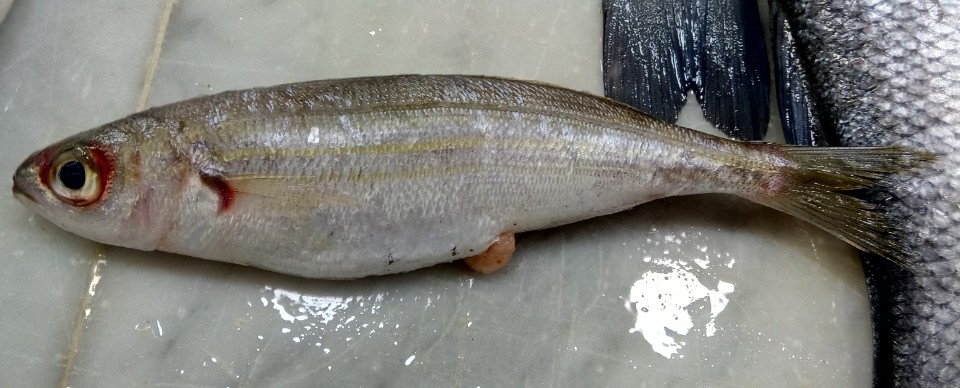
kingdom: Animalia
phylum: Chordata
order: Perciformes
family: Sparidae
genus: Boops
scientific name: Boops boops
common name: Bogue
